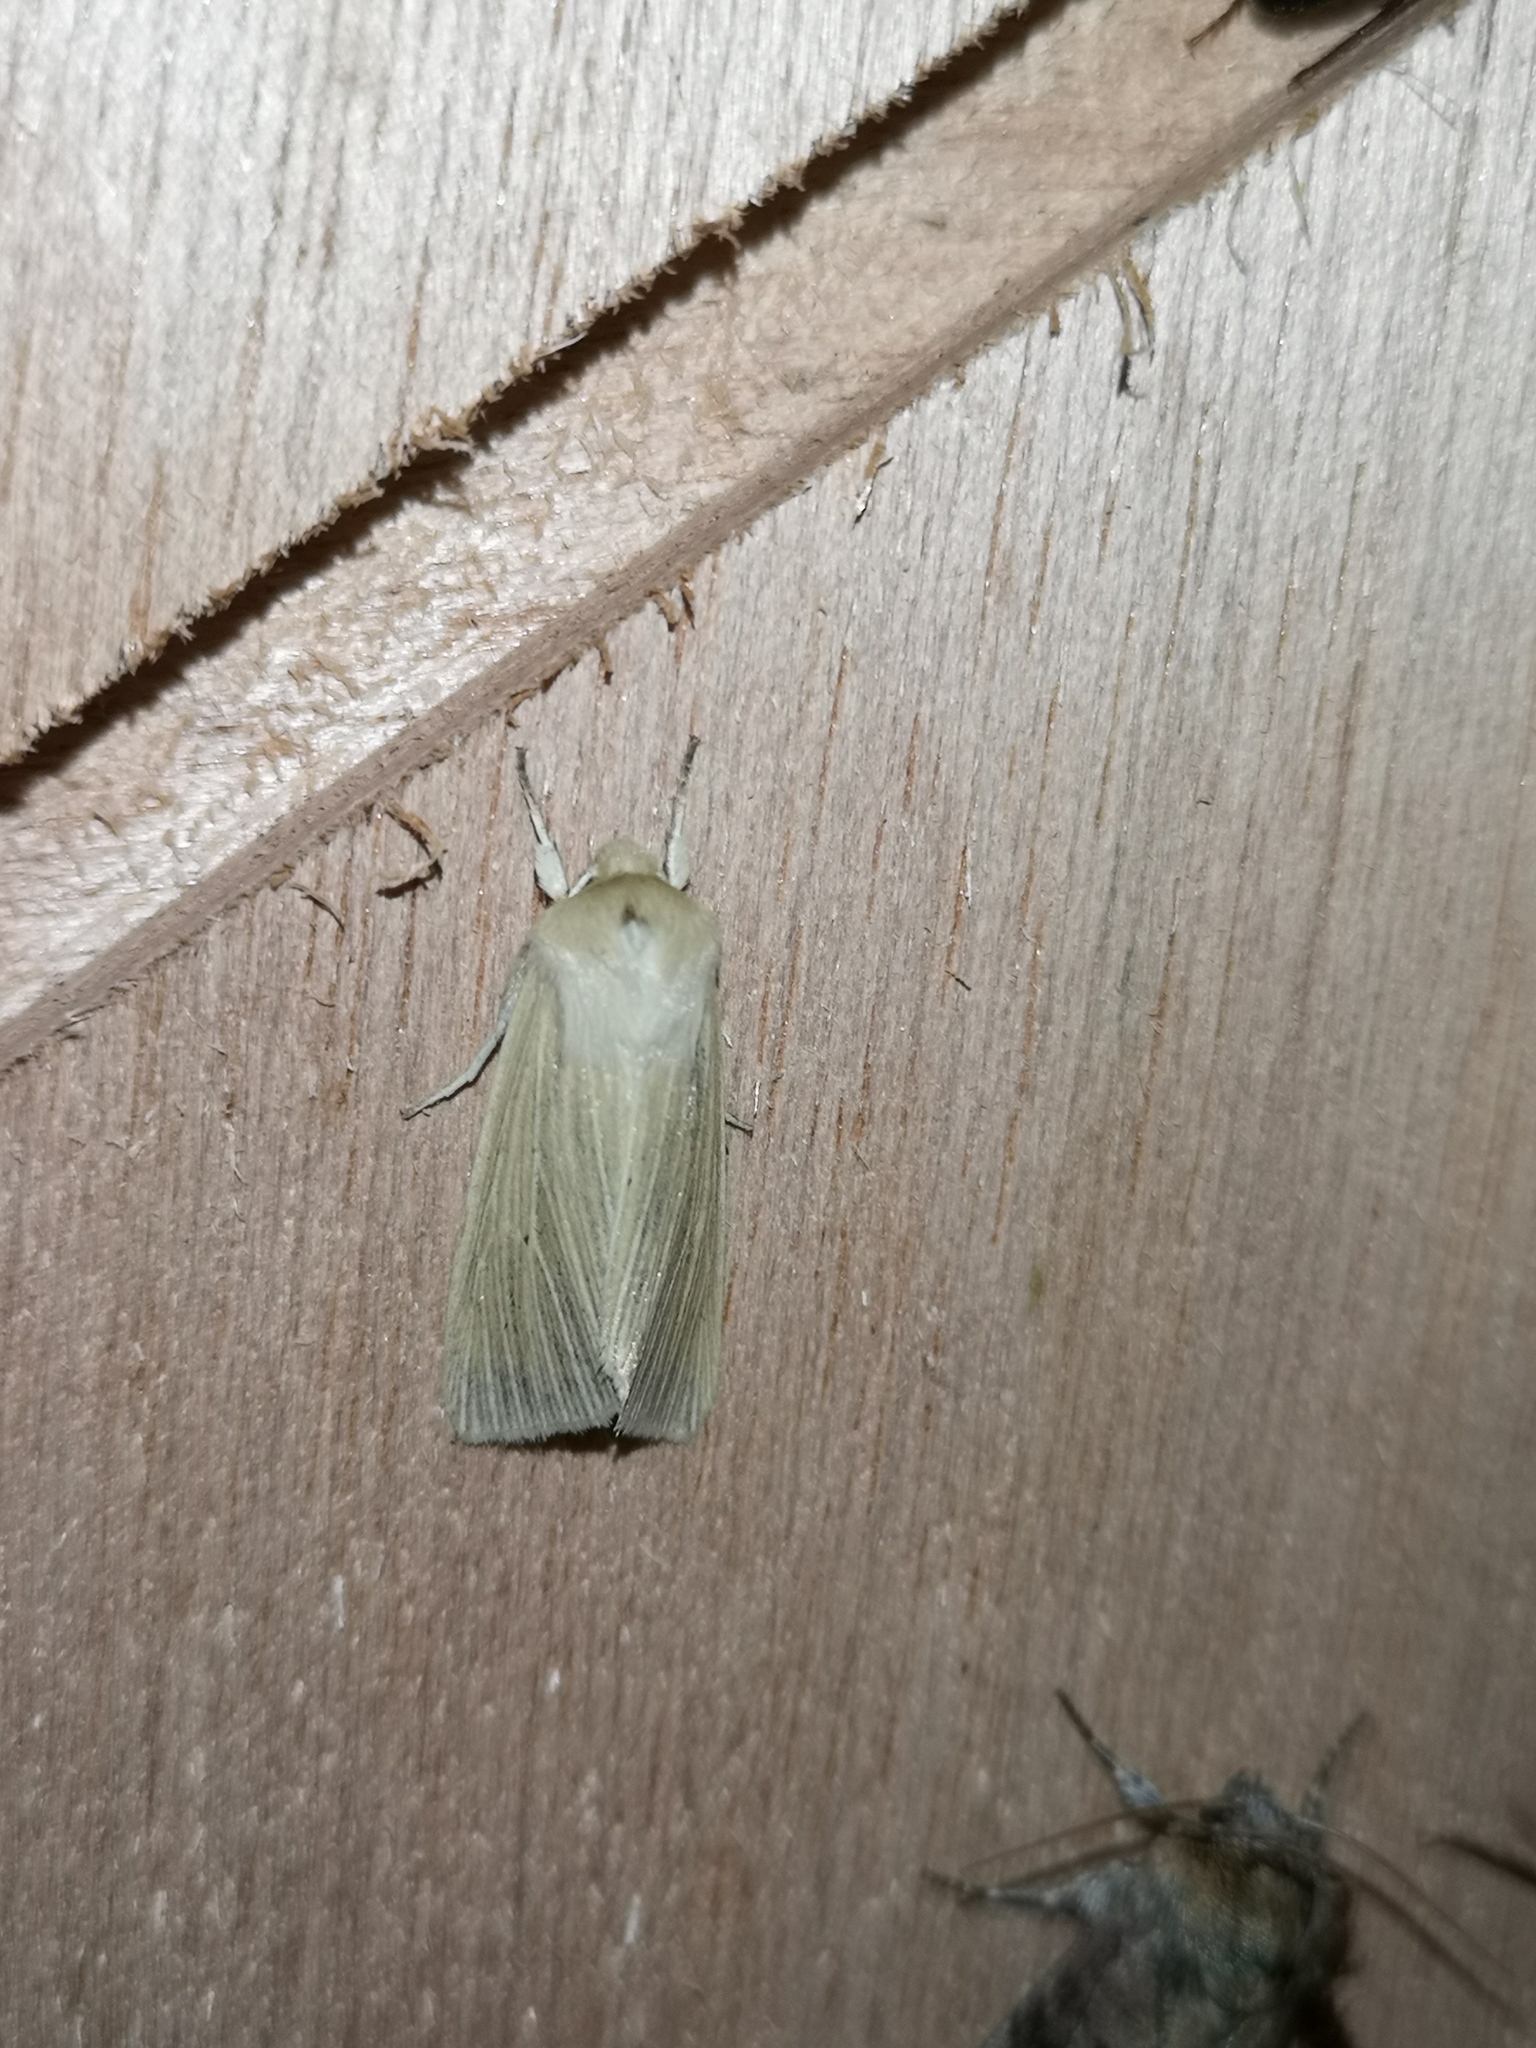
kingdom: Animalia
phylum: Arthropoda
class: Insecta
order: Lepidoptera
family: Noctuidae
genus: Mythimna
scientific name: Mythimna pallens
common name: Common wainscot
